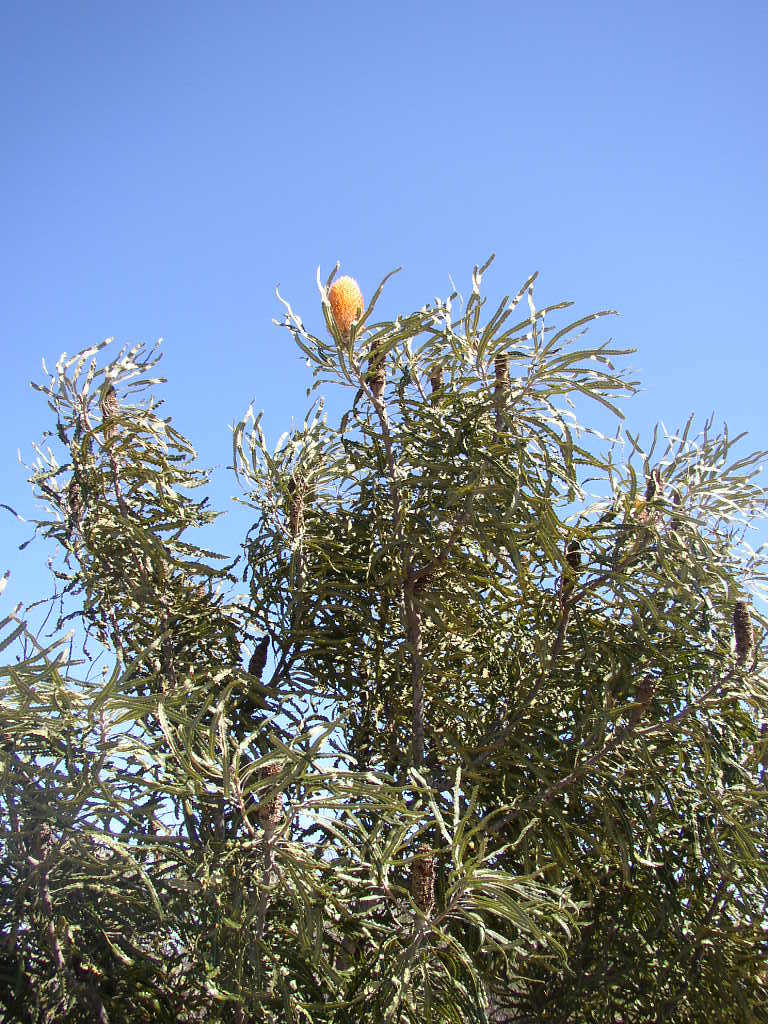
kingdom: Plantae
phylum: Tracheophyta
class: Magnoliopsida
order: Proteales
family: Proteaceae
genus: Banksia
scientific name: Banksia prionotes
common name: Acorn banksia
